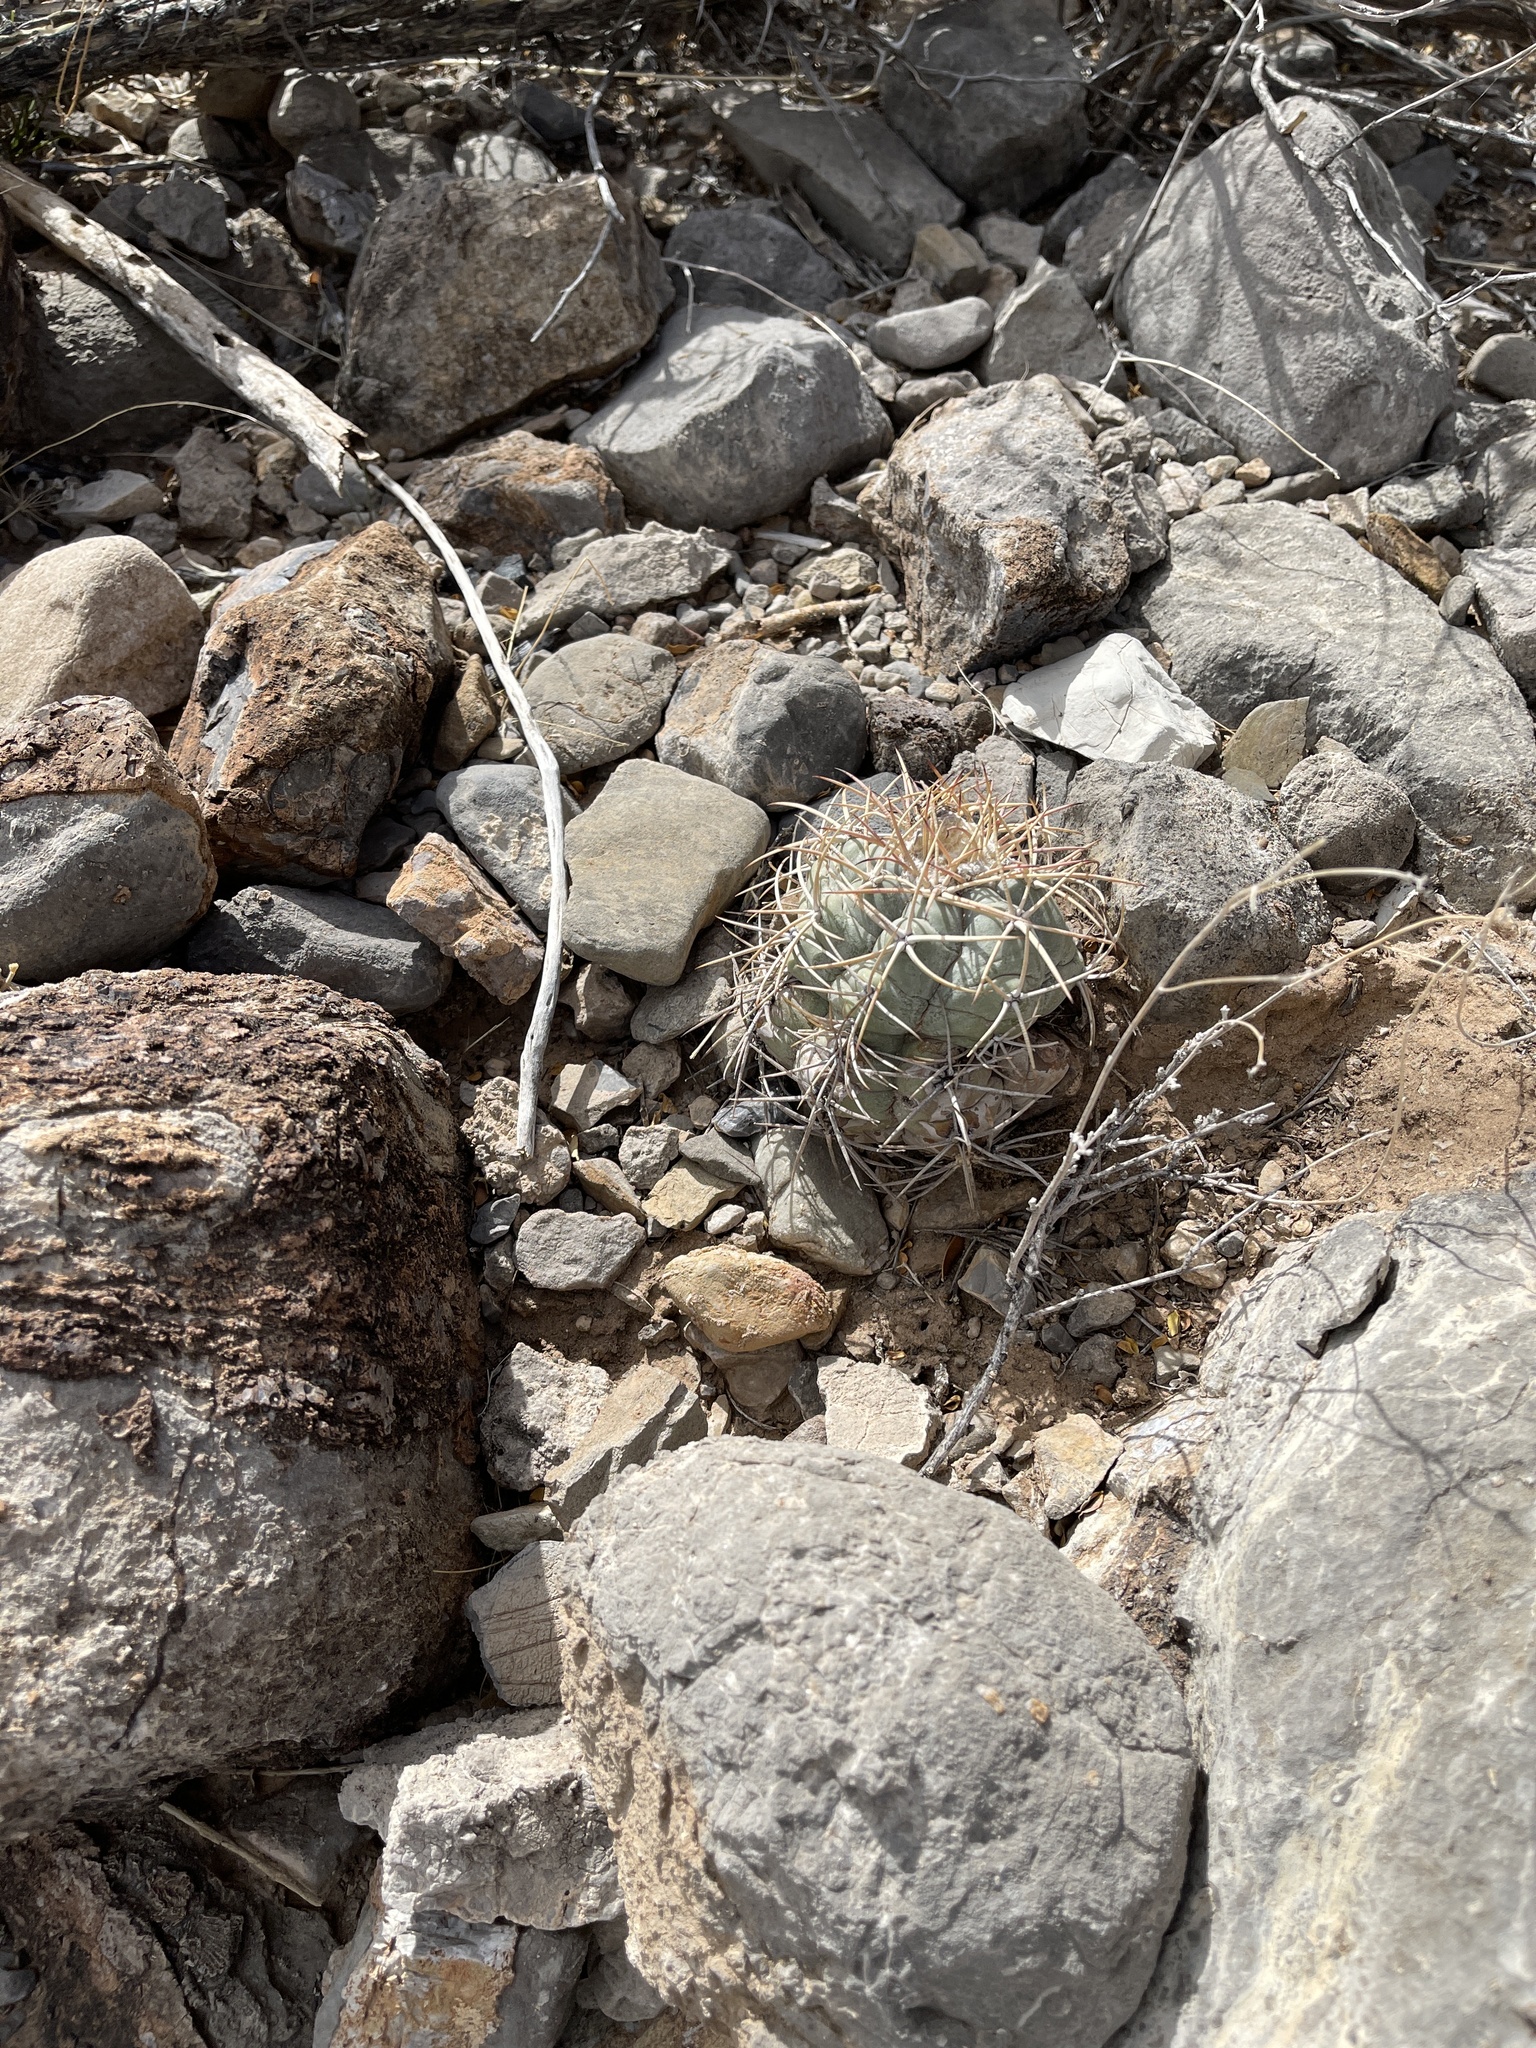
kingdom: Plantae
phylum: Tracheophyta
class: Magnoliopsida
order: Caryophyllales
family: Cactaceae
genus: Echinocactus
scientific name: Echinocactus horizonthalonius
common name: Devilshead
